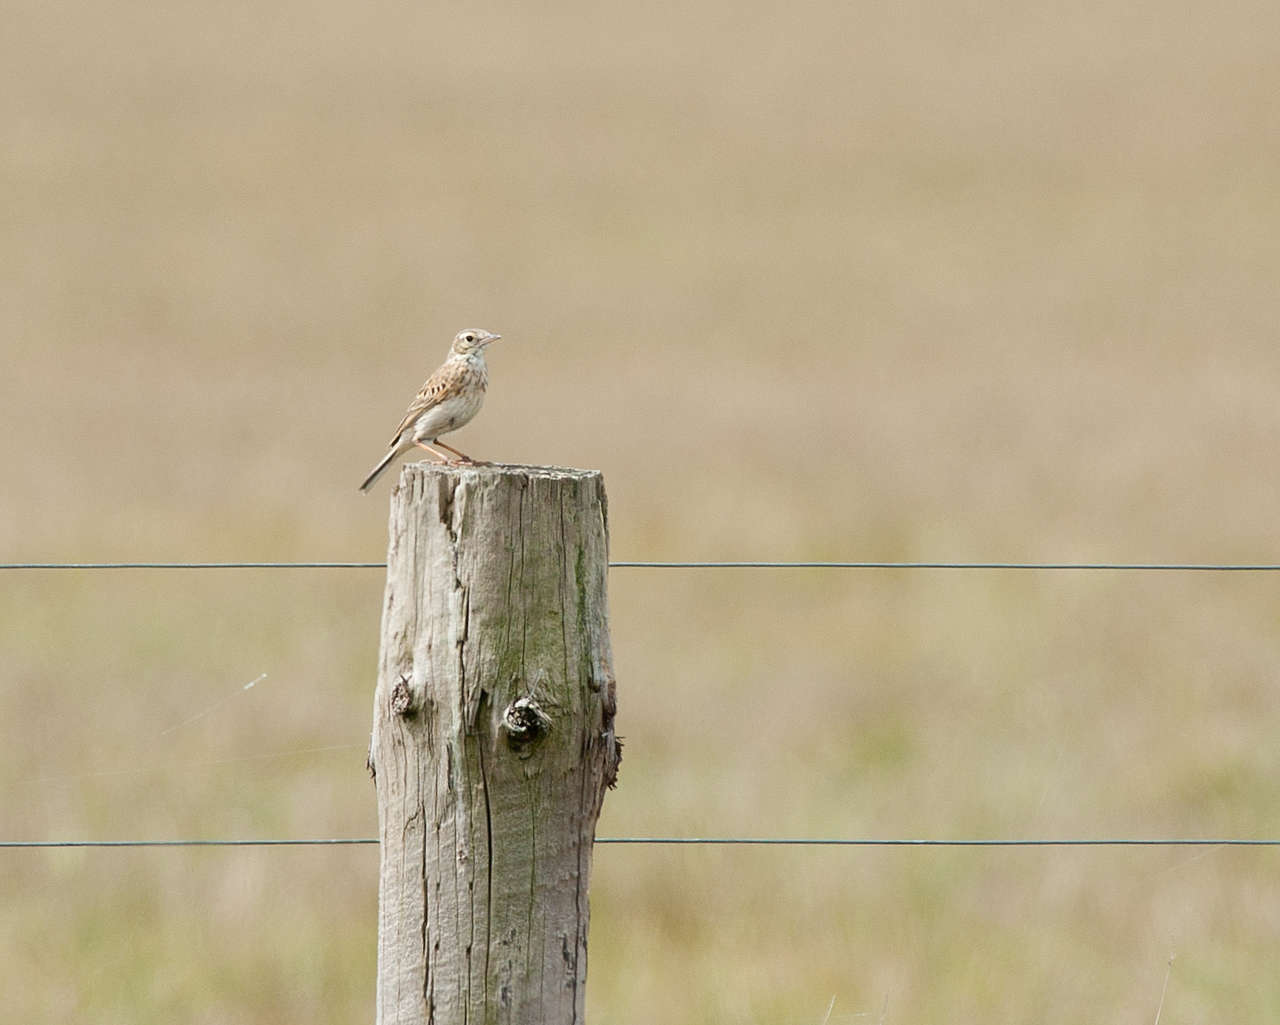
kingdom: Animalia
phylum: Chordata
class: Aves
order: Passeriformes
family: Motacillidae
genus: Anthus
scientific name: Anthus australis
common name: Australian pipit
